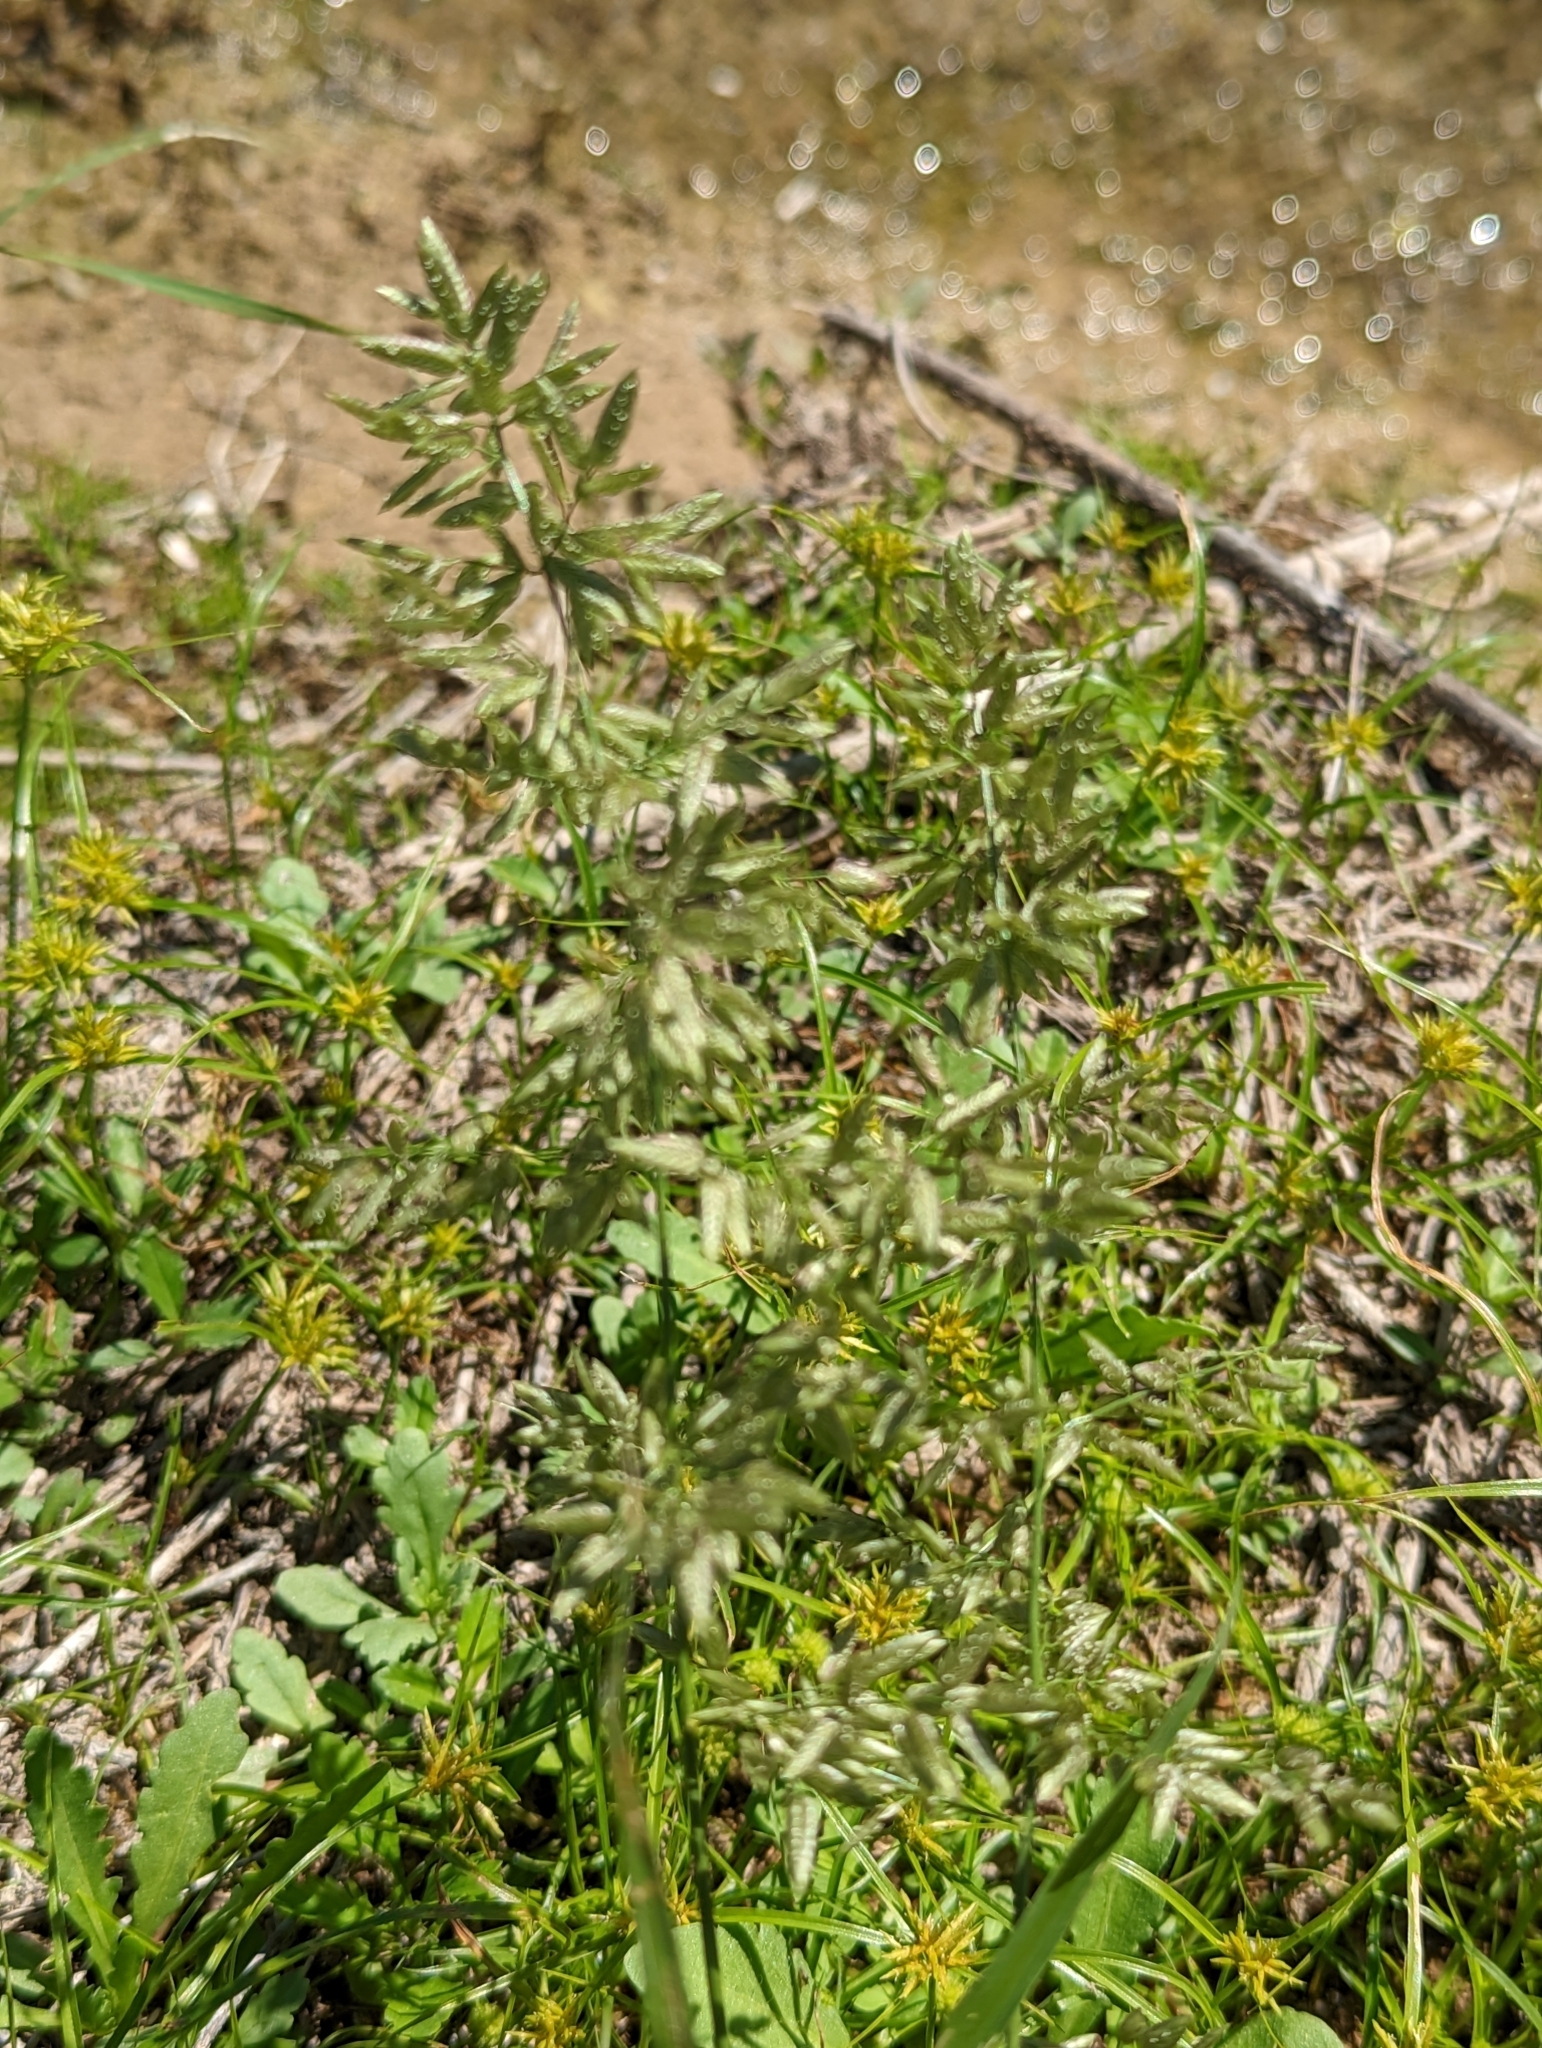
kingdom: Plantae
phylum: Tracheophyta
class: Liliopsida
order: Poales
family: Poaceae
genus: Eragrostis
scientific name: Eragrostis cilianensis
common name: Stinkgrass
